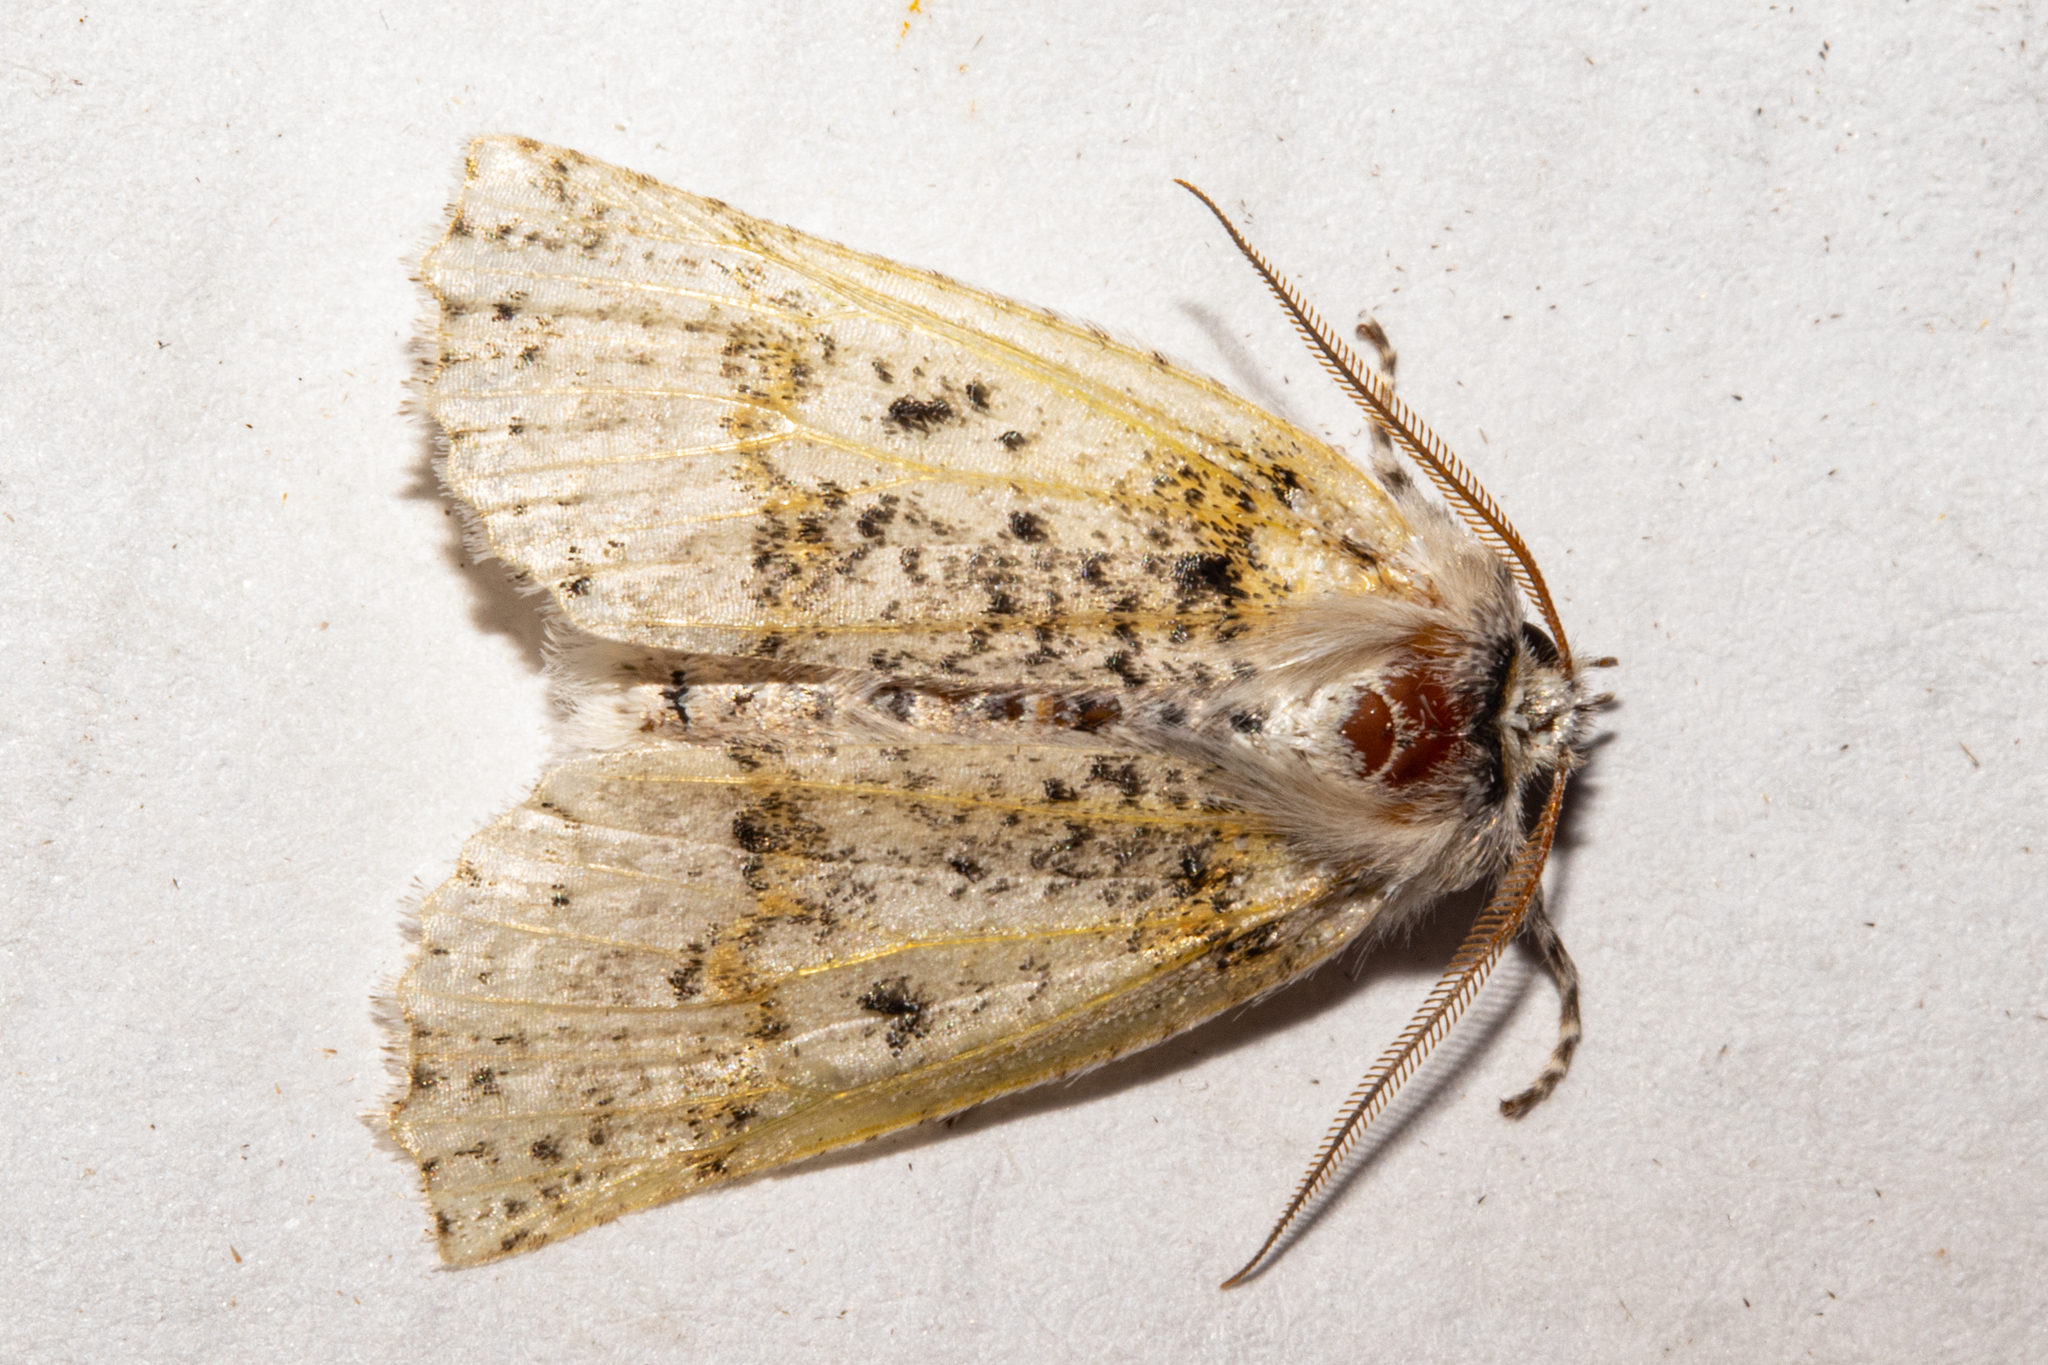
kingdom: Animalia
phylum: Arthropoda
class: Insecta
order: Lepidoptera
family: Geometridae
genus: Declana
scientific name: Declana floccosa
